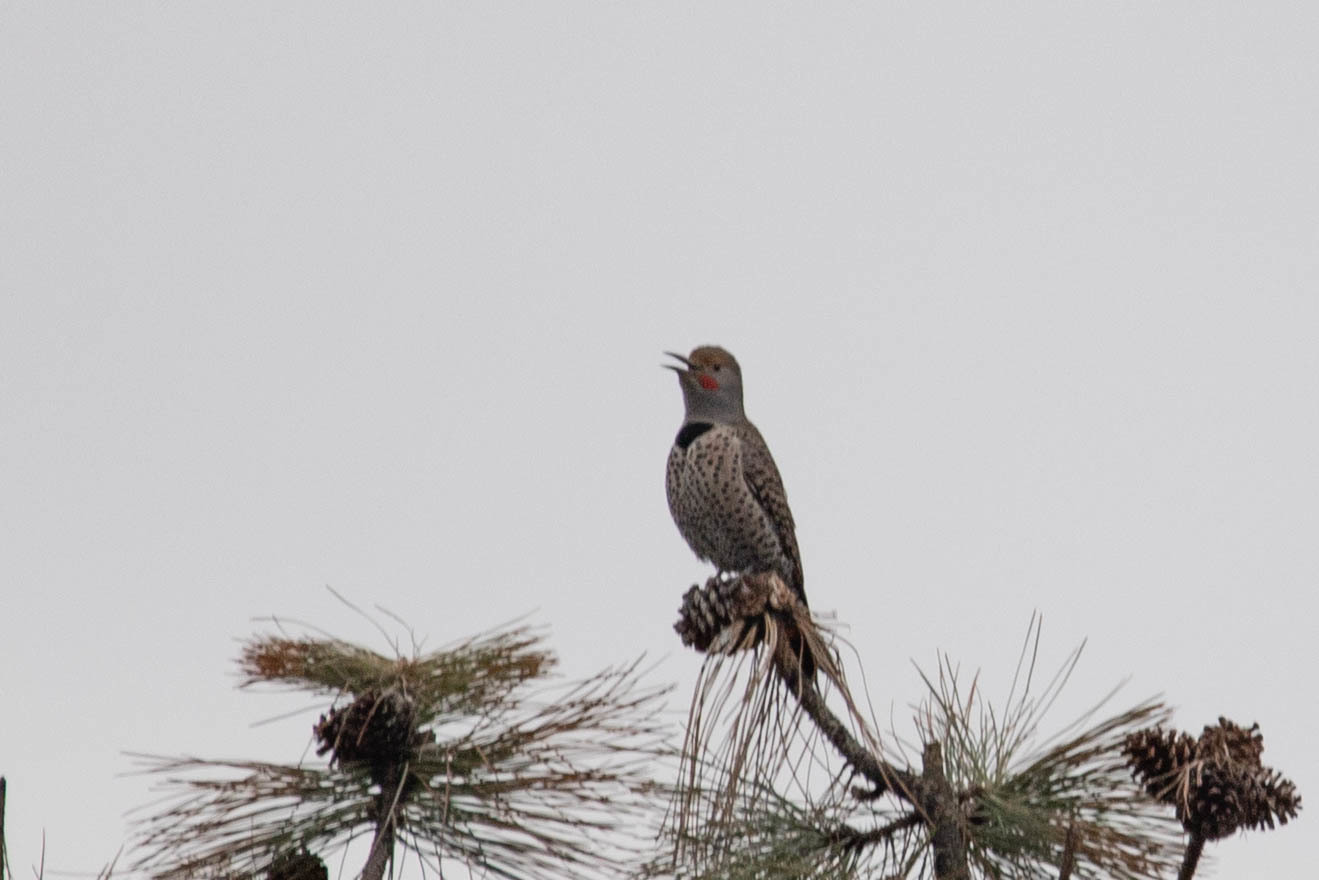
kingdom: Animalia
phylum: Chordata
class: Aves
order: Piciformes
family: Picidae
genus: Colaptes
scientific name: Colaptes auratus
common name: Northern flicker
